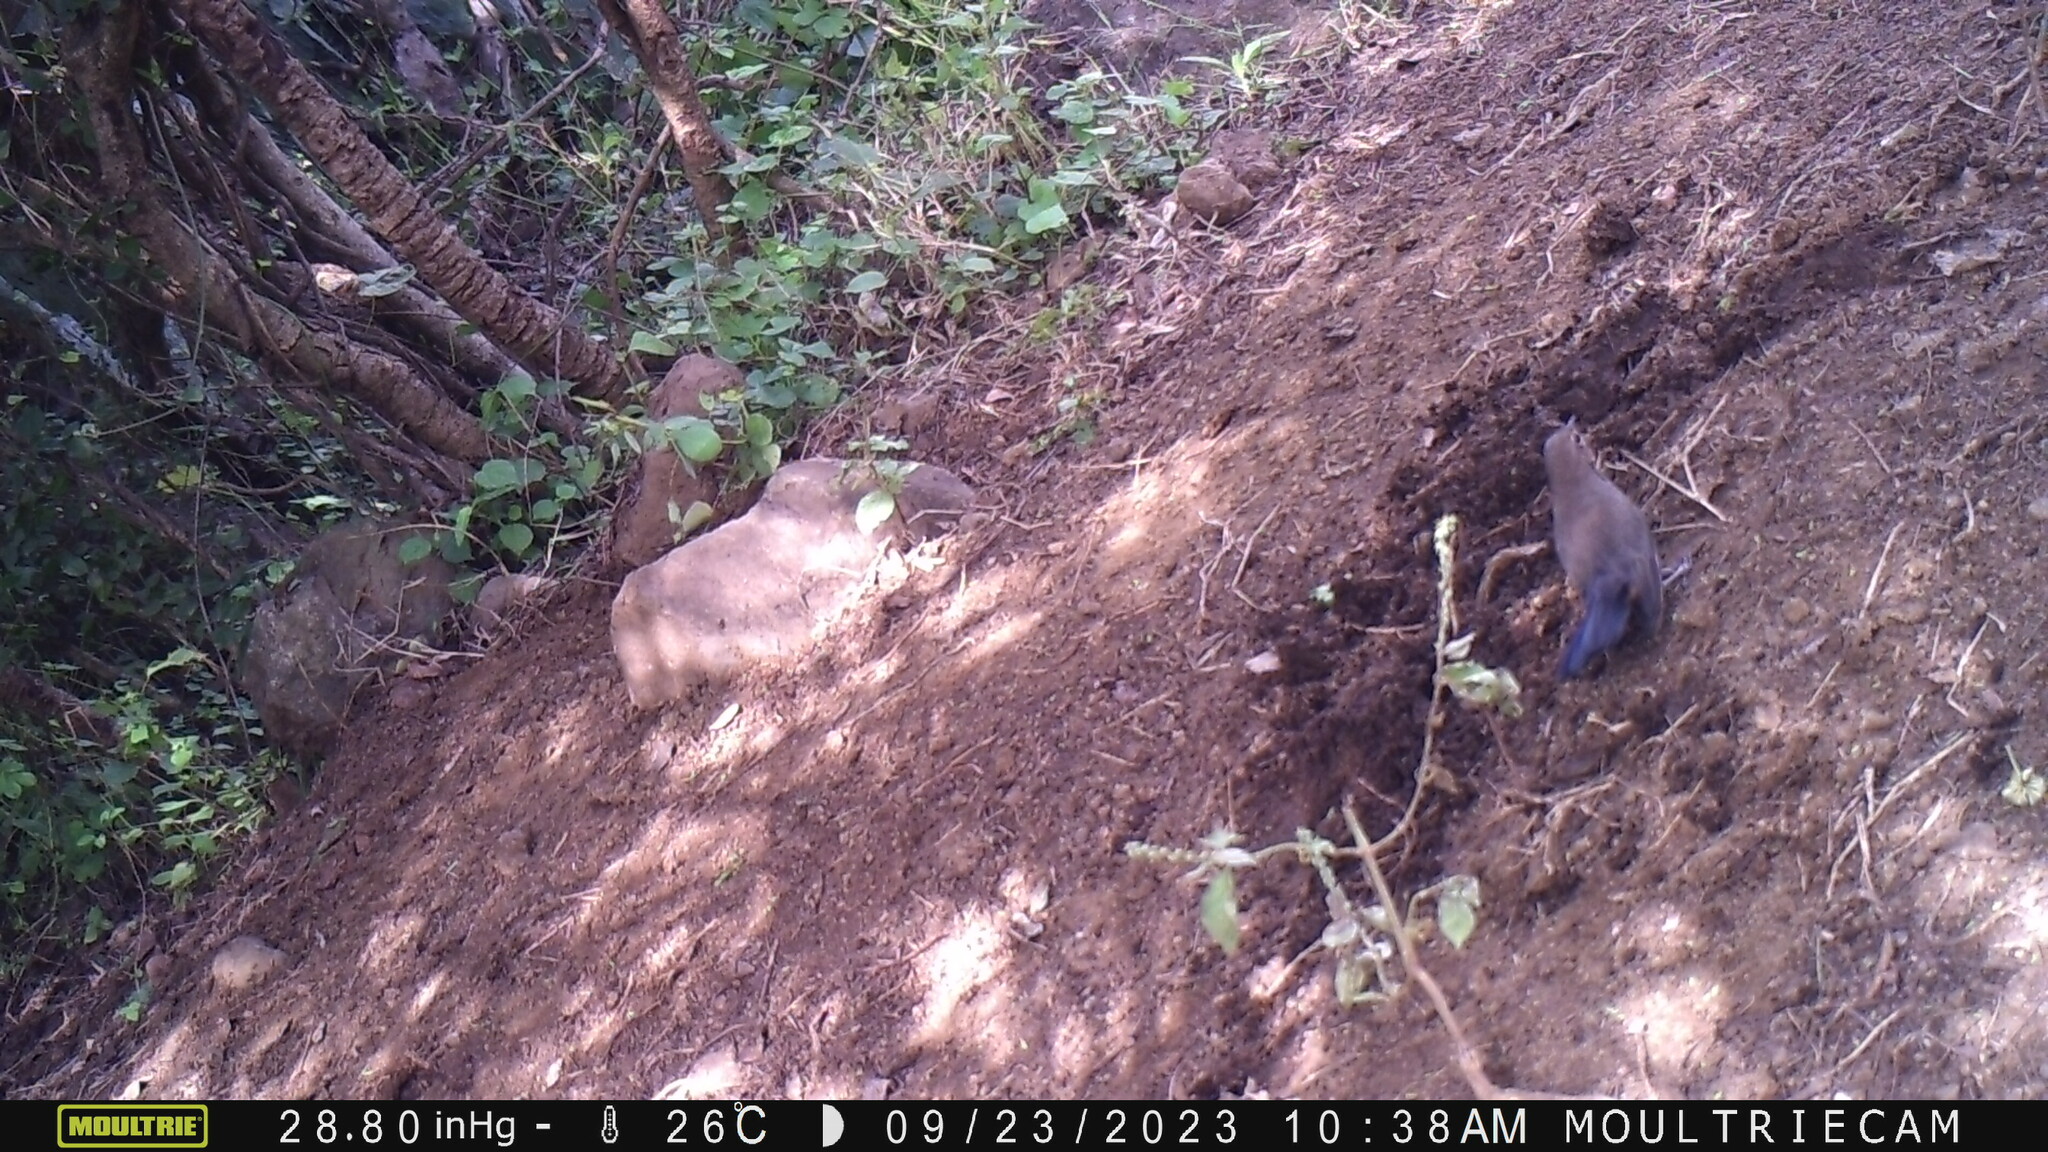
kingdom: Animalia
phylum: Chordata
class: Aves
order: Passeriformes
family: Muscicapidae
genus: Saxicoloides
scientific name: Saxicoloides fulicatus
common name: Indian robin
